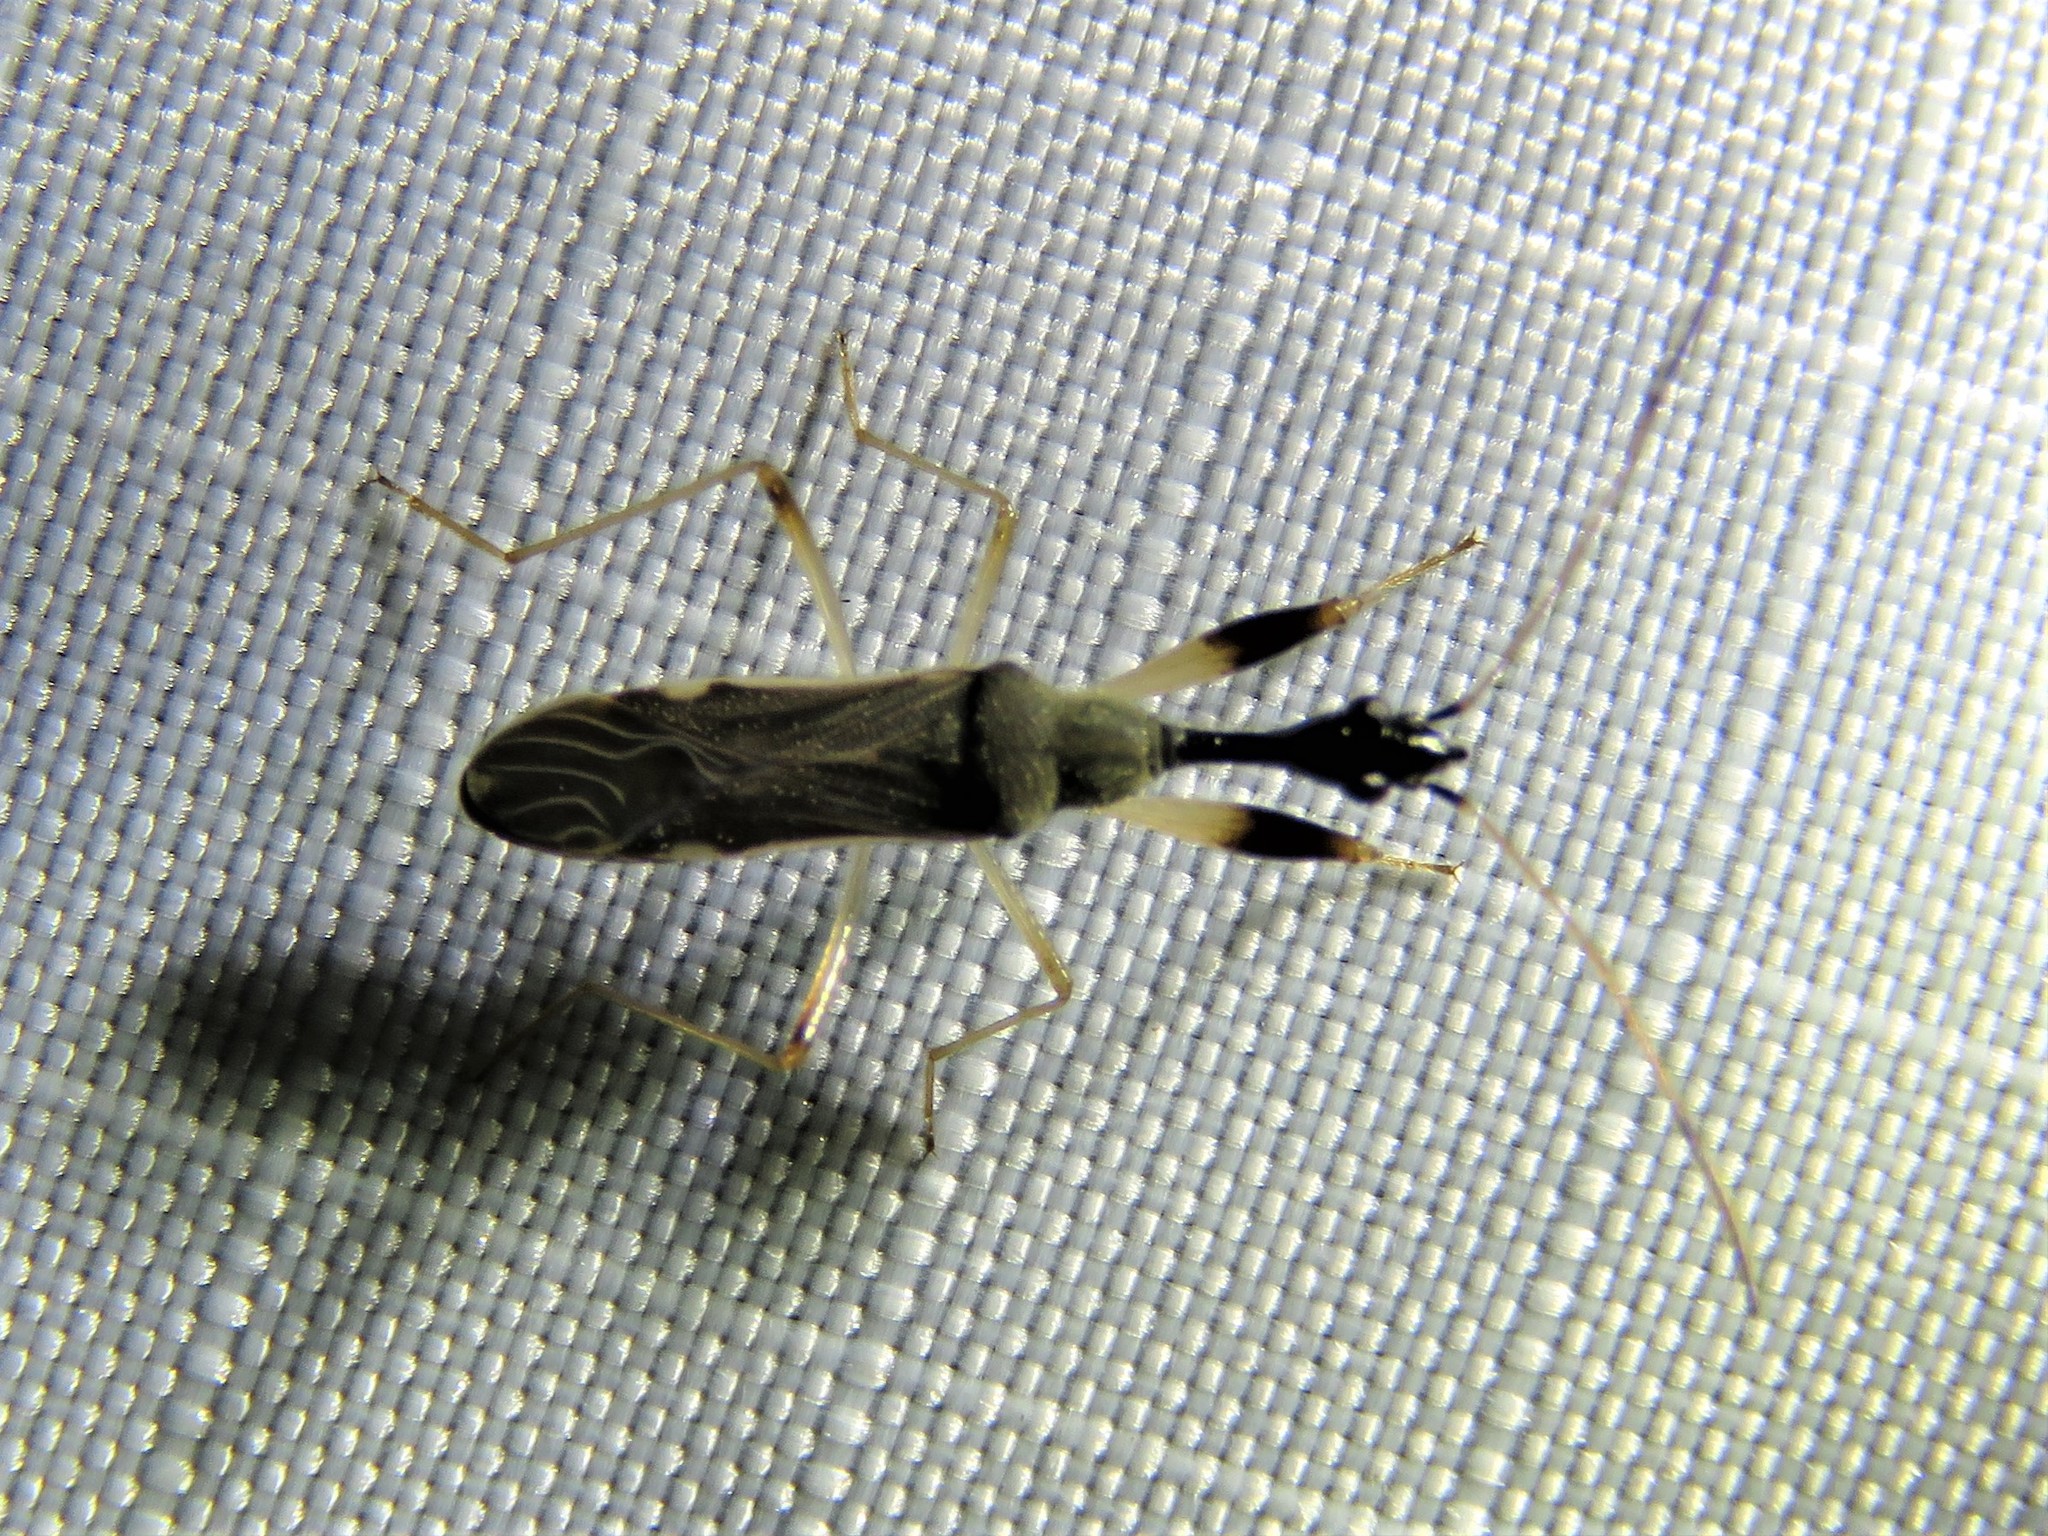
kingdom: Animalia
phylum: Arthropoda
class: Insecta
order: Hemiptera
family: Rhyparochromidae
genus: Myodocha
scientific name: Myodocha serripes
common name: Long-necked seed bug
